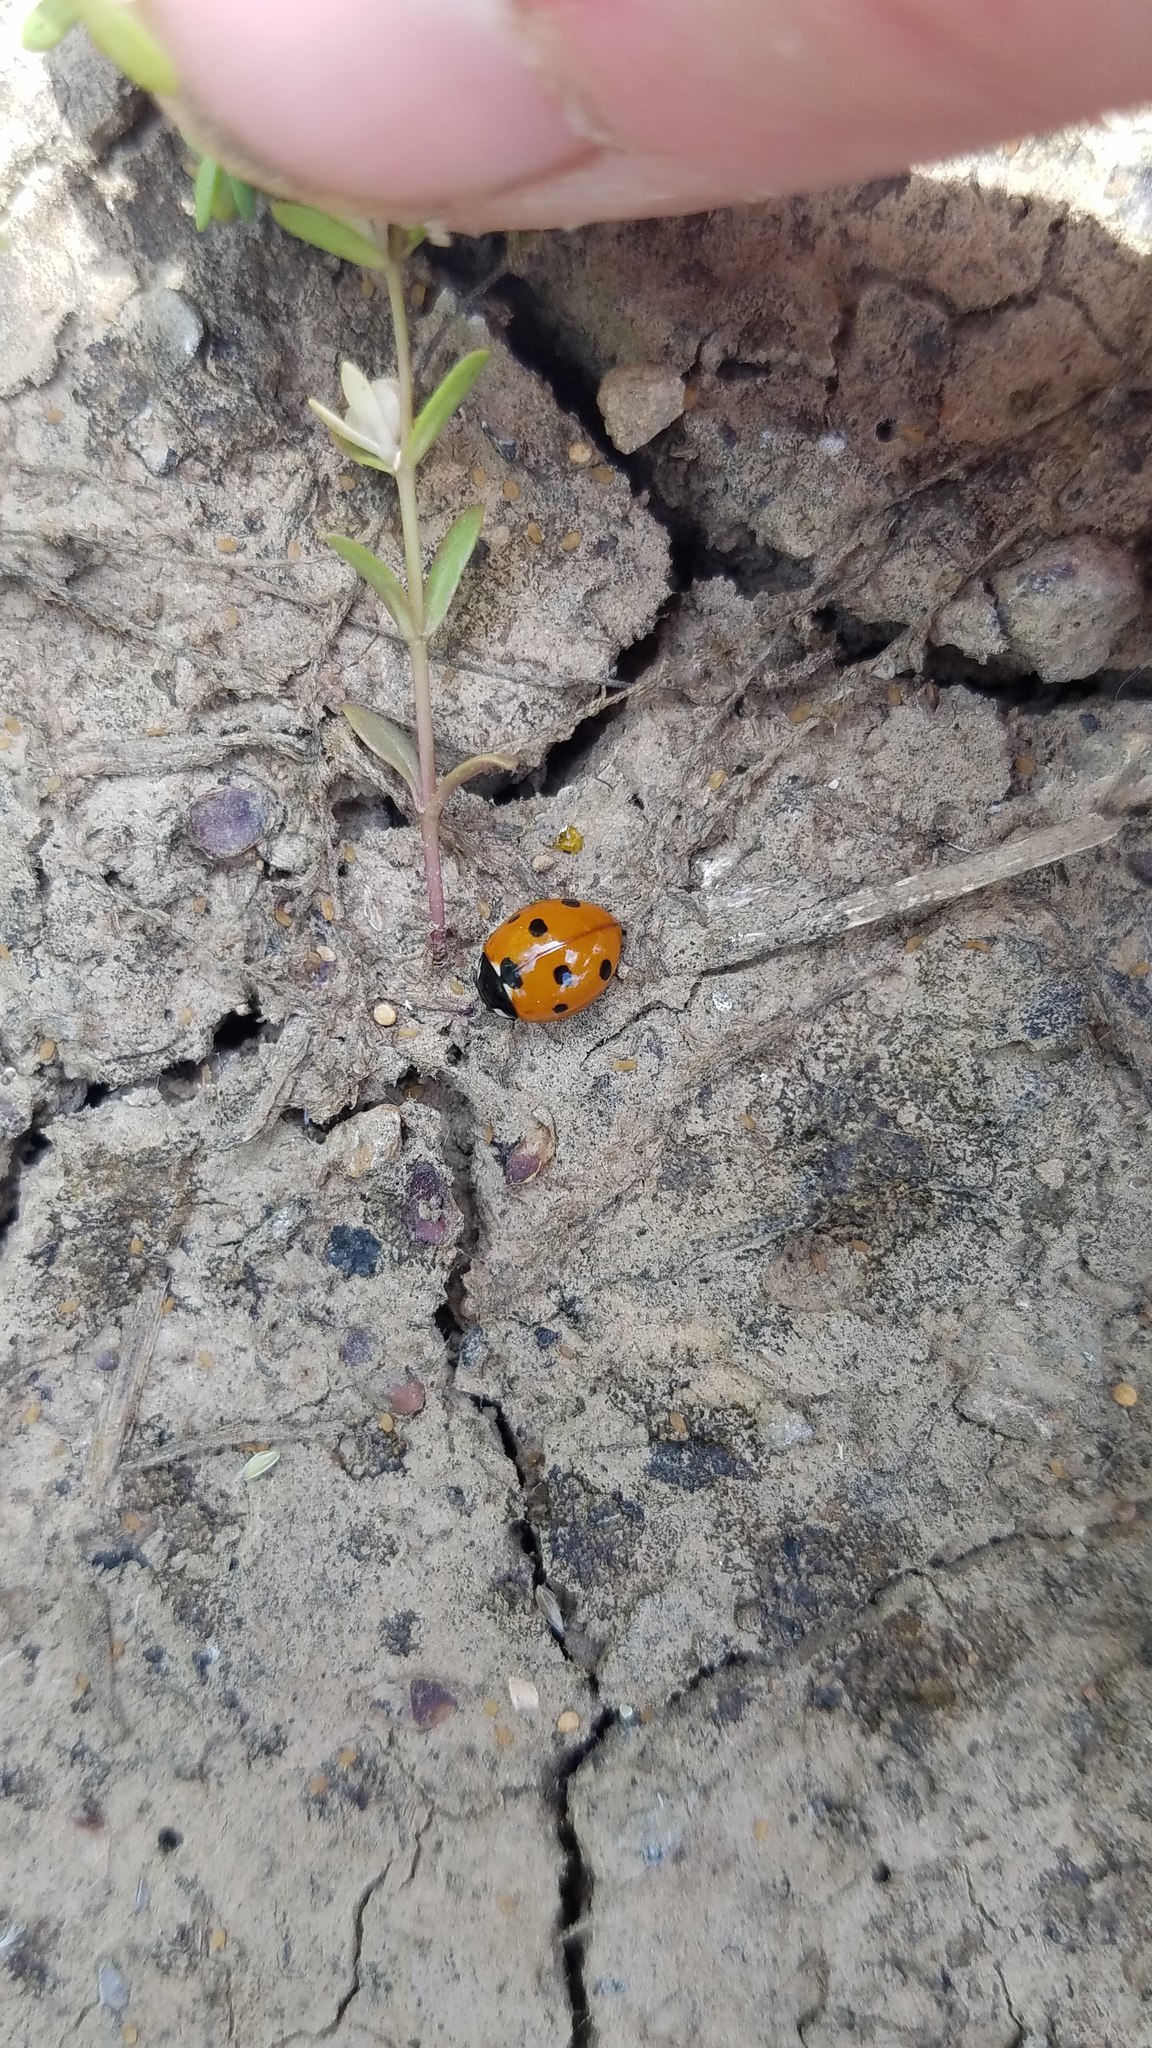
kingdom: Animalia
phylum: Arthropoda
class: Insecta
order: Coleoptera
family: Coccinellidae
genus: Coccinella
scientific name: Coccinella septempunctata
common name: Sevenspotted lady beetle
